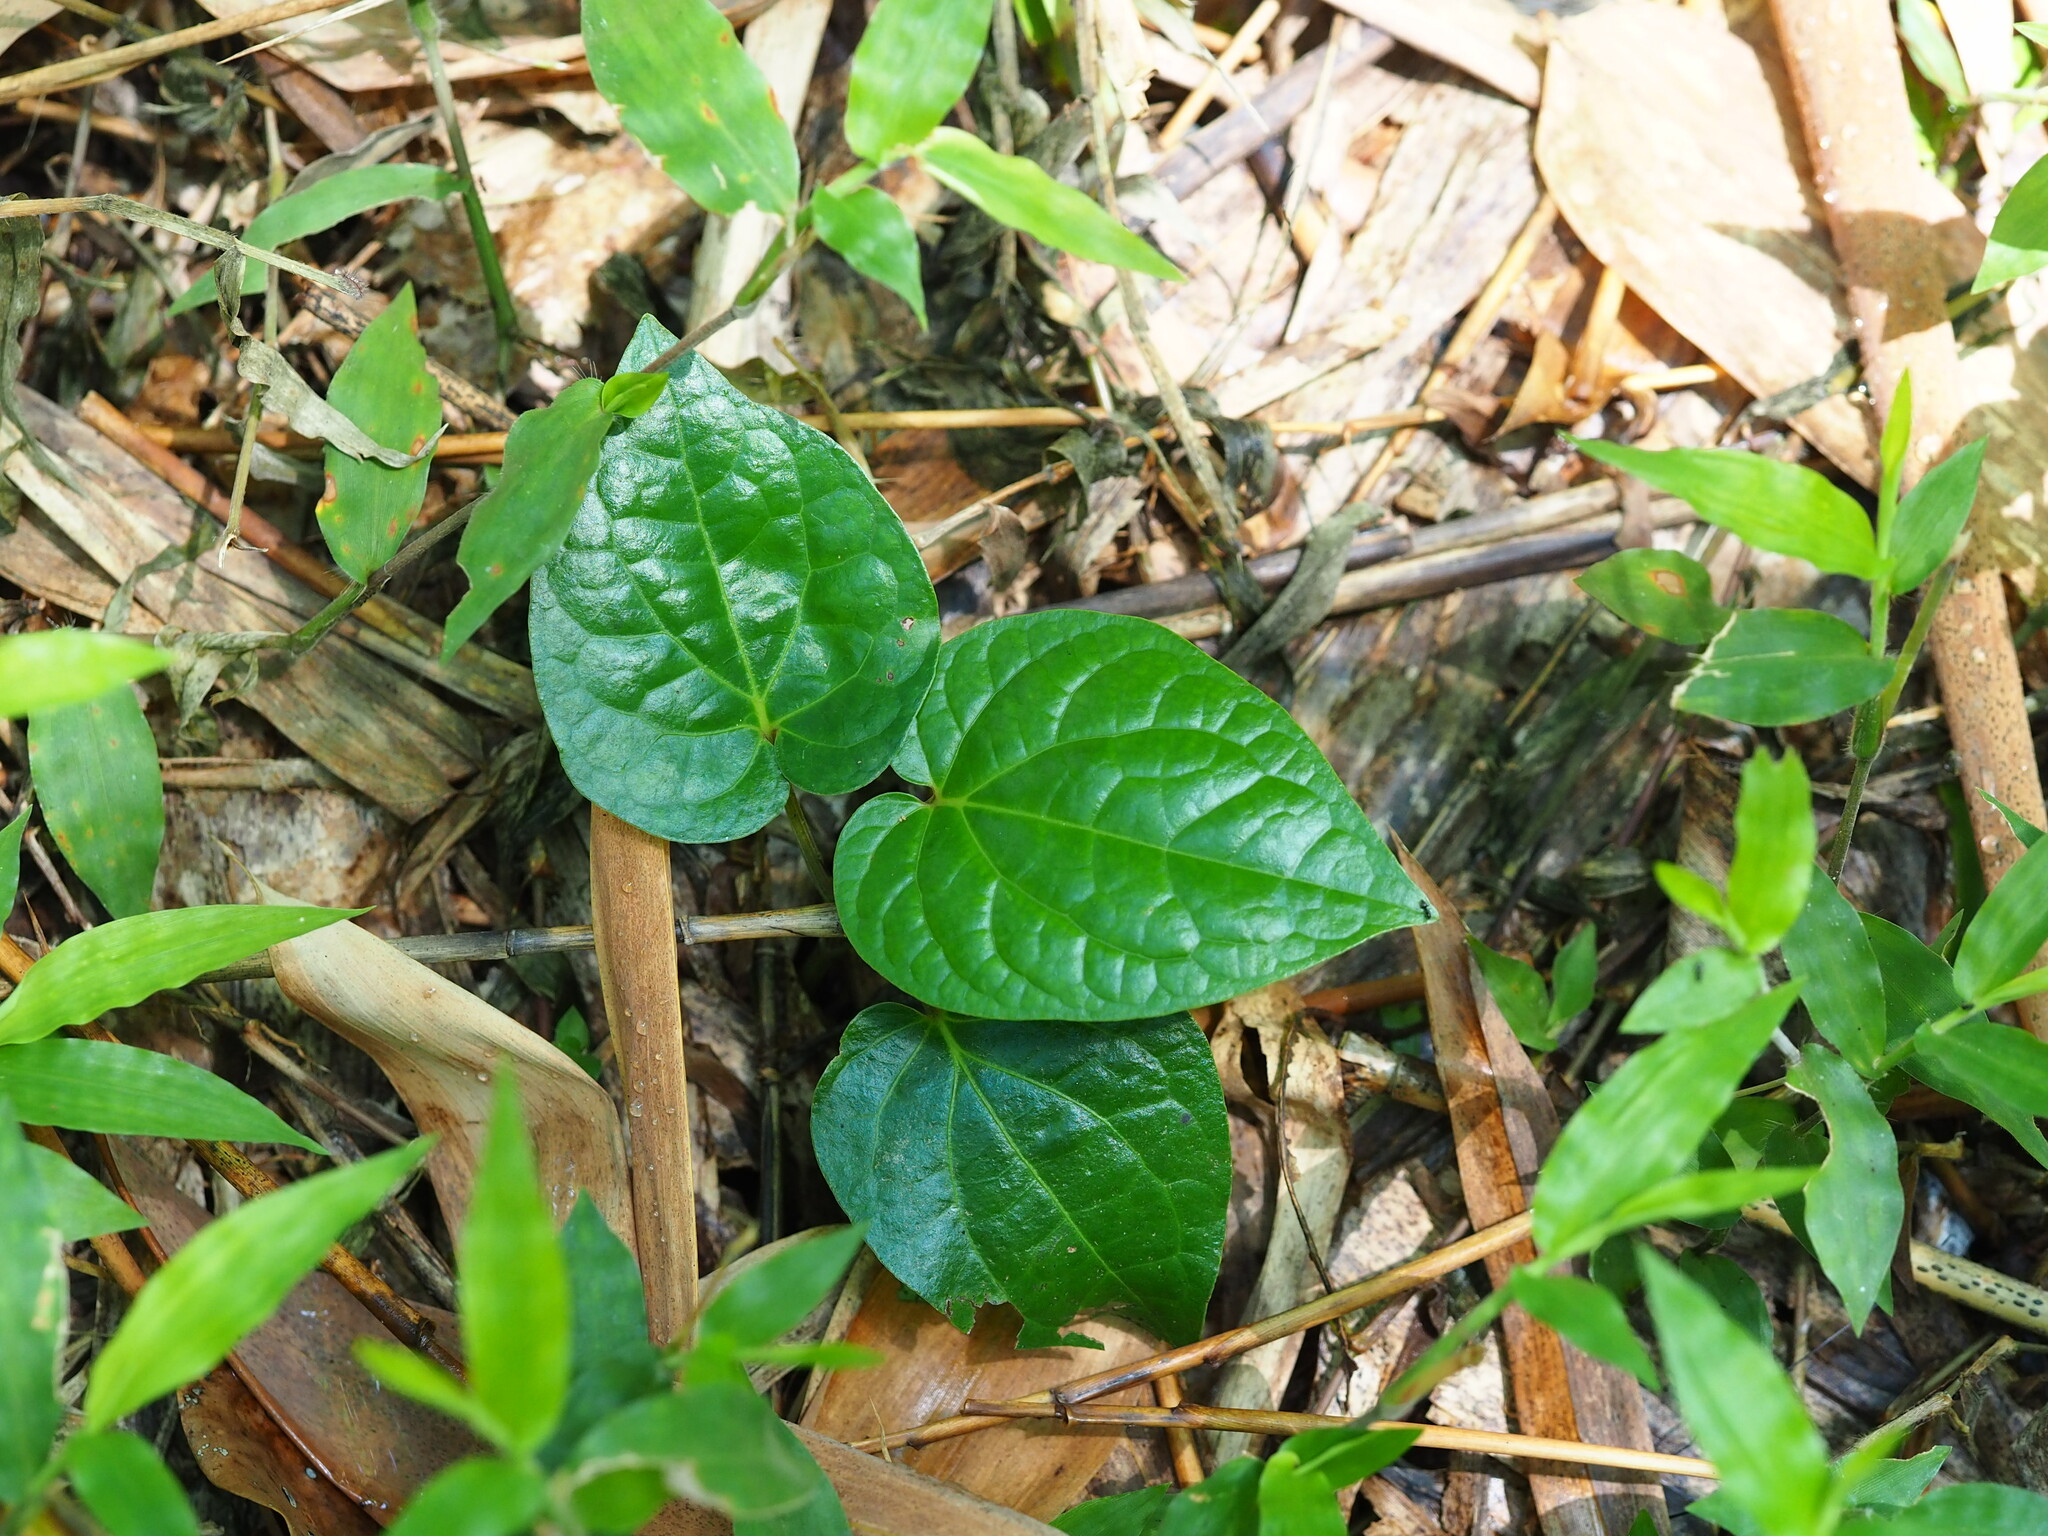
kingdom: Plantae
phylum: Tracheophyta
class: Magnoliopsida
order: Piperales
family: Piperaceae
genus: Piper
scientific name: Piper betle
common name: Betel pepper
